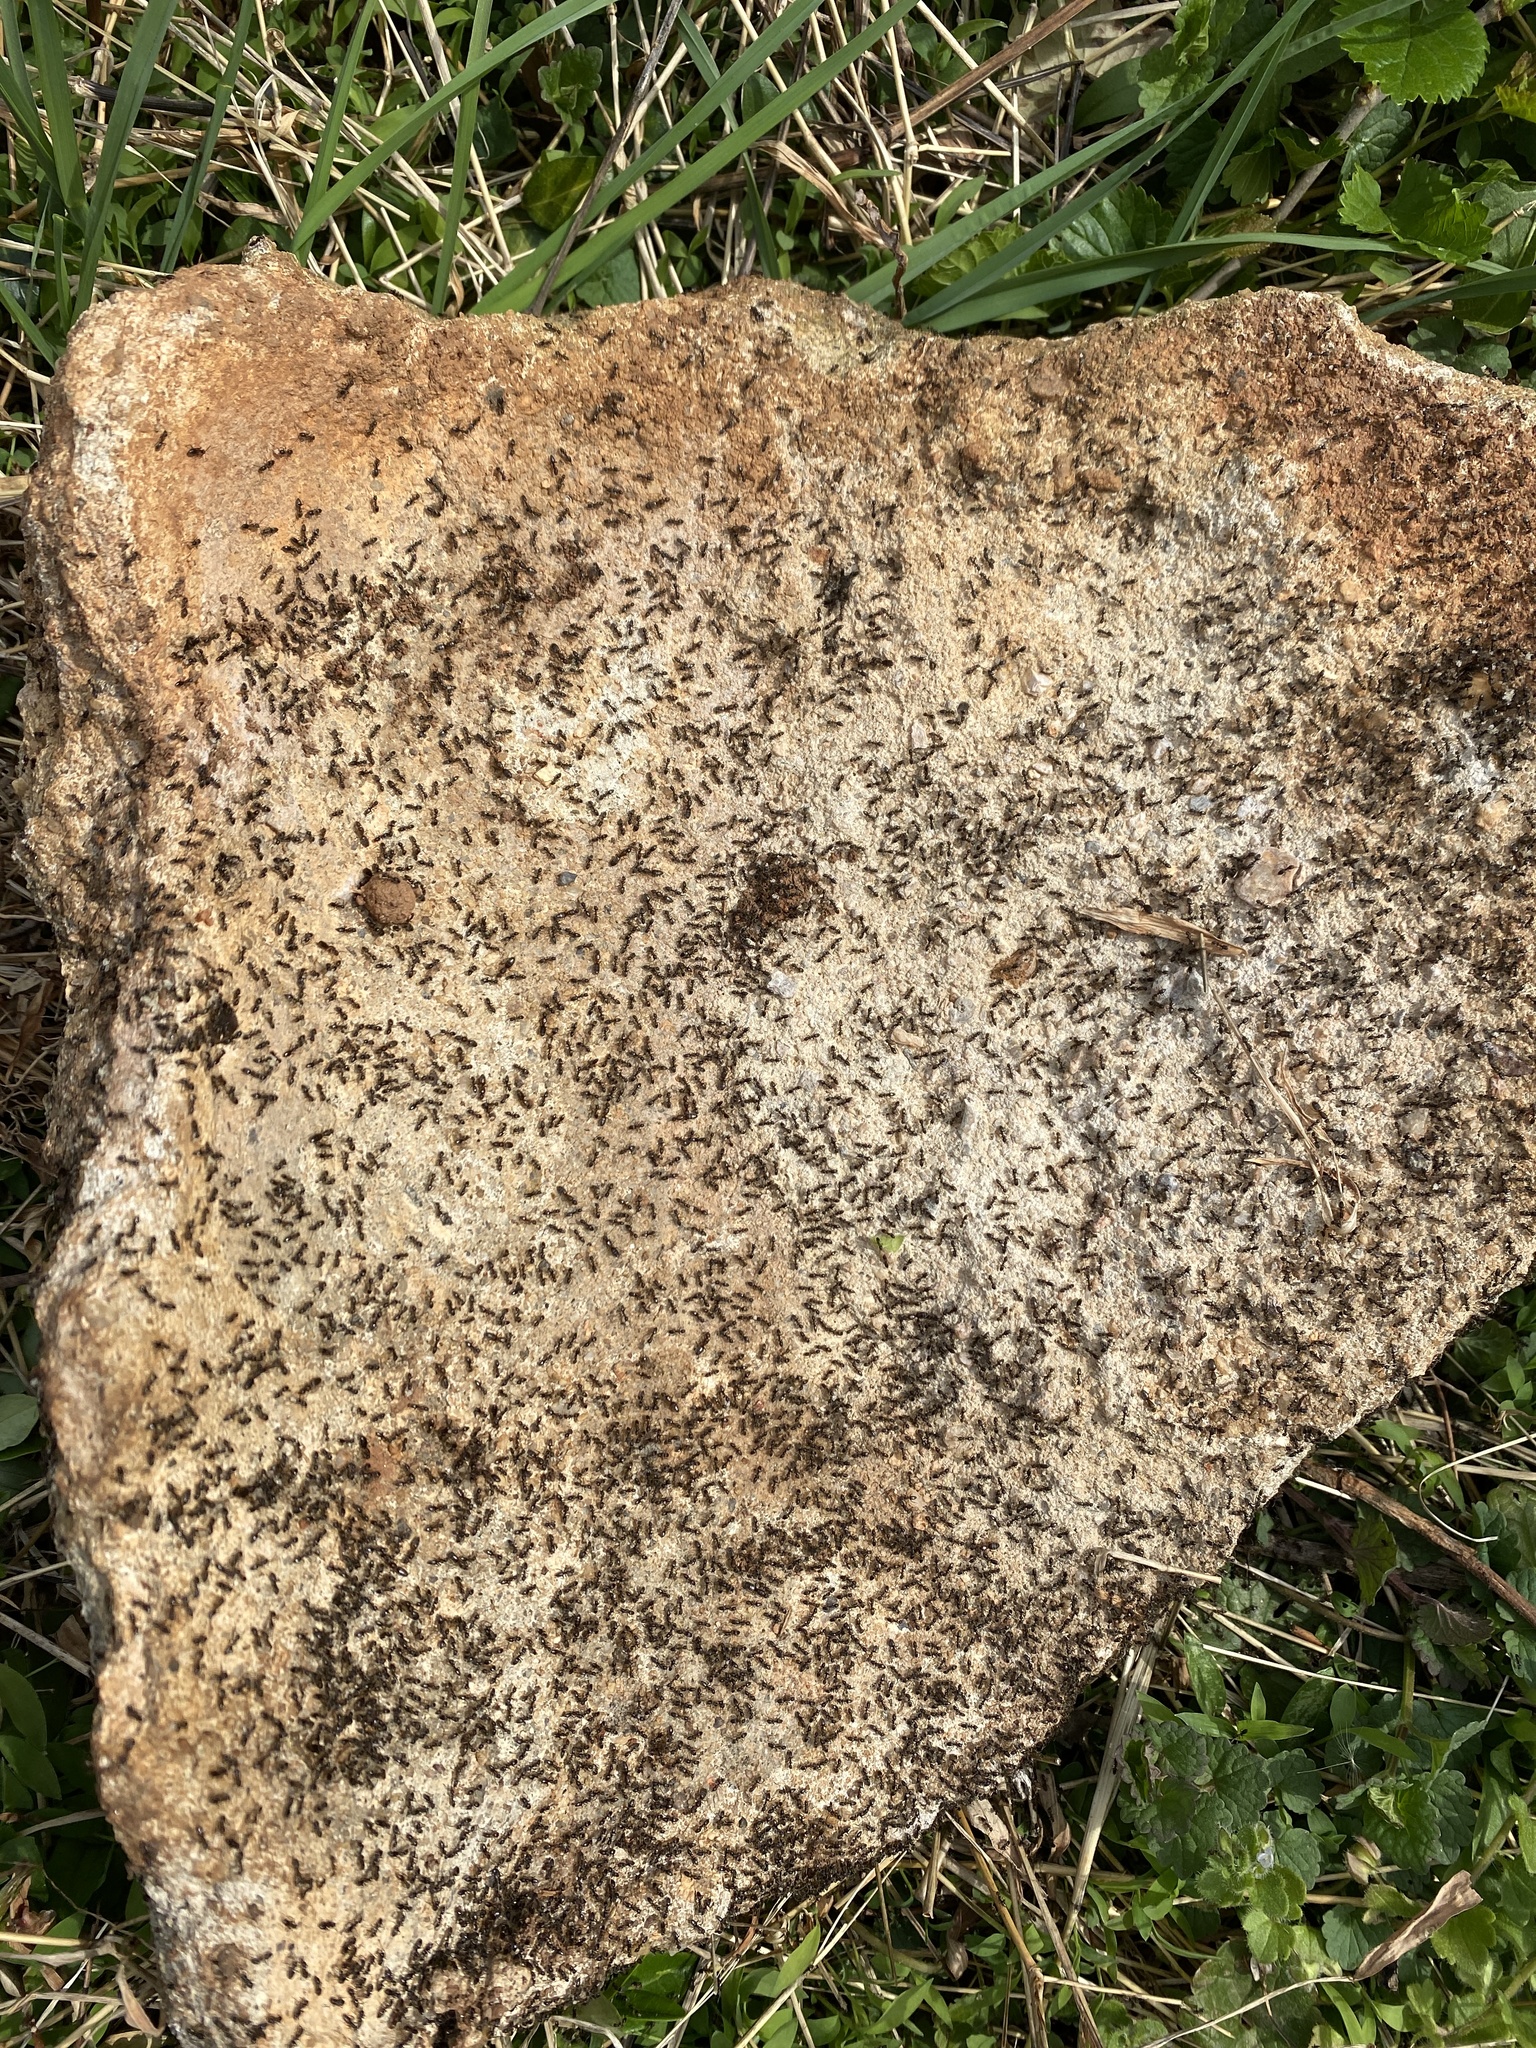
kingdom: Animalia
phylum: Arthropoda
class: Insecta
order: Hymenoptera
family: Formicidae
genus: Tapinoma
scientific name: Tapinoma sessile
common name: Odorous house ant
